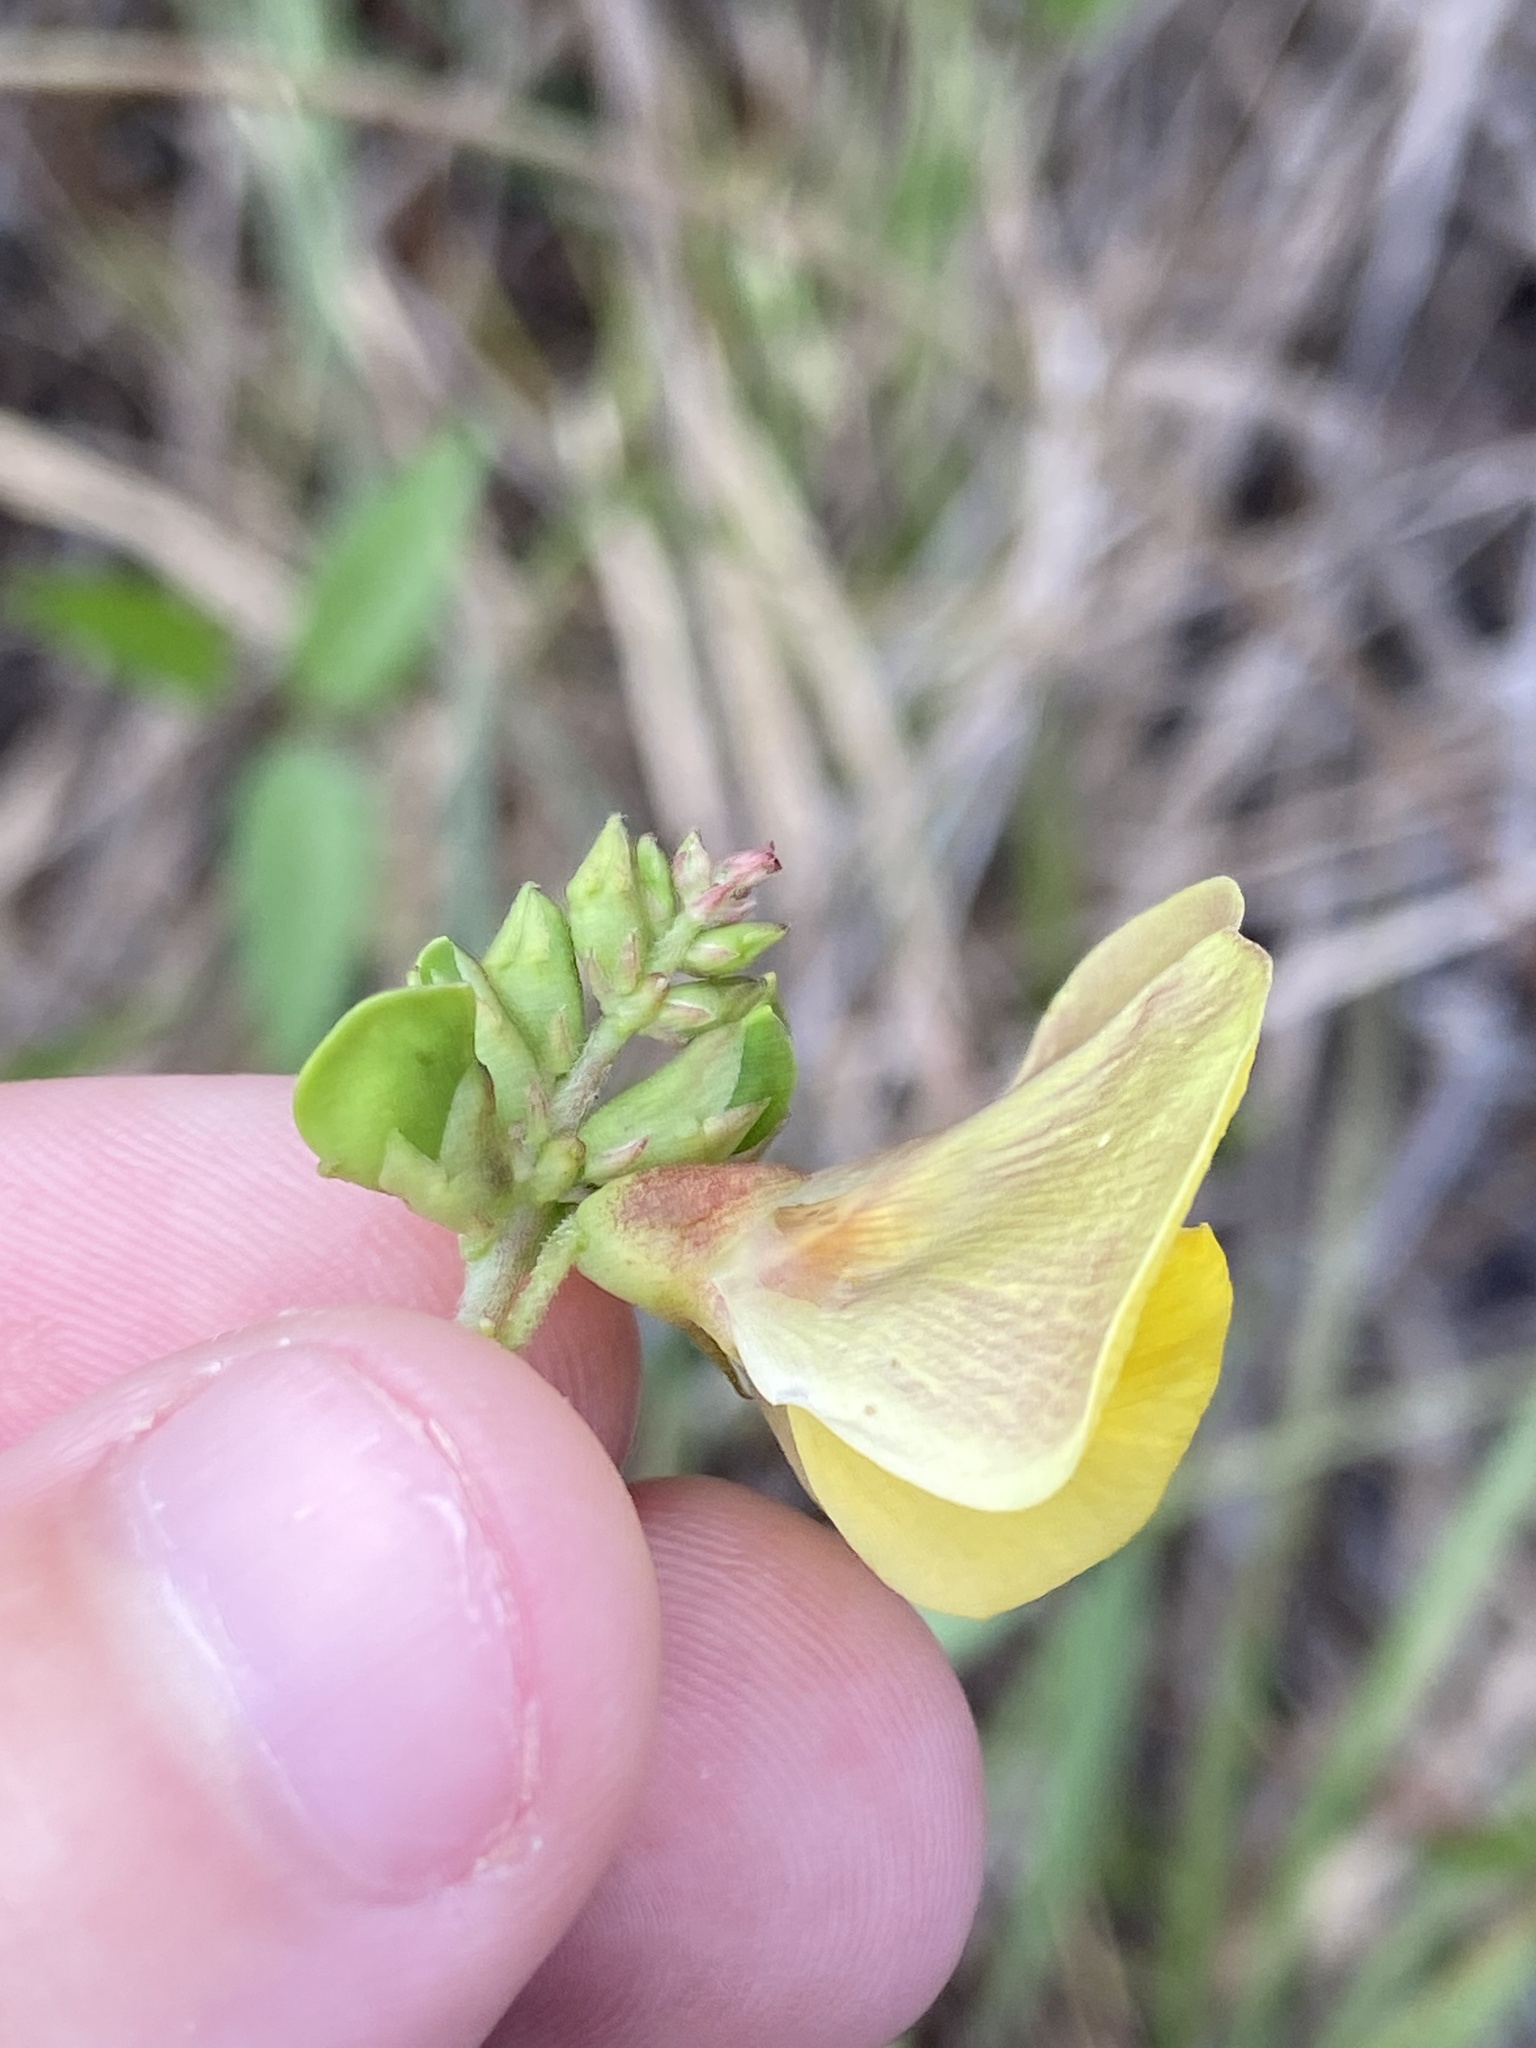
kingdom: Plantae
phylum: Tracheophyta
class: Magnoliopsida
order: Fabales
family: Fabaceae
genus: Vigna
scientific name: Vigna luteola
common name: Hairypod cowpea
